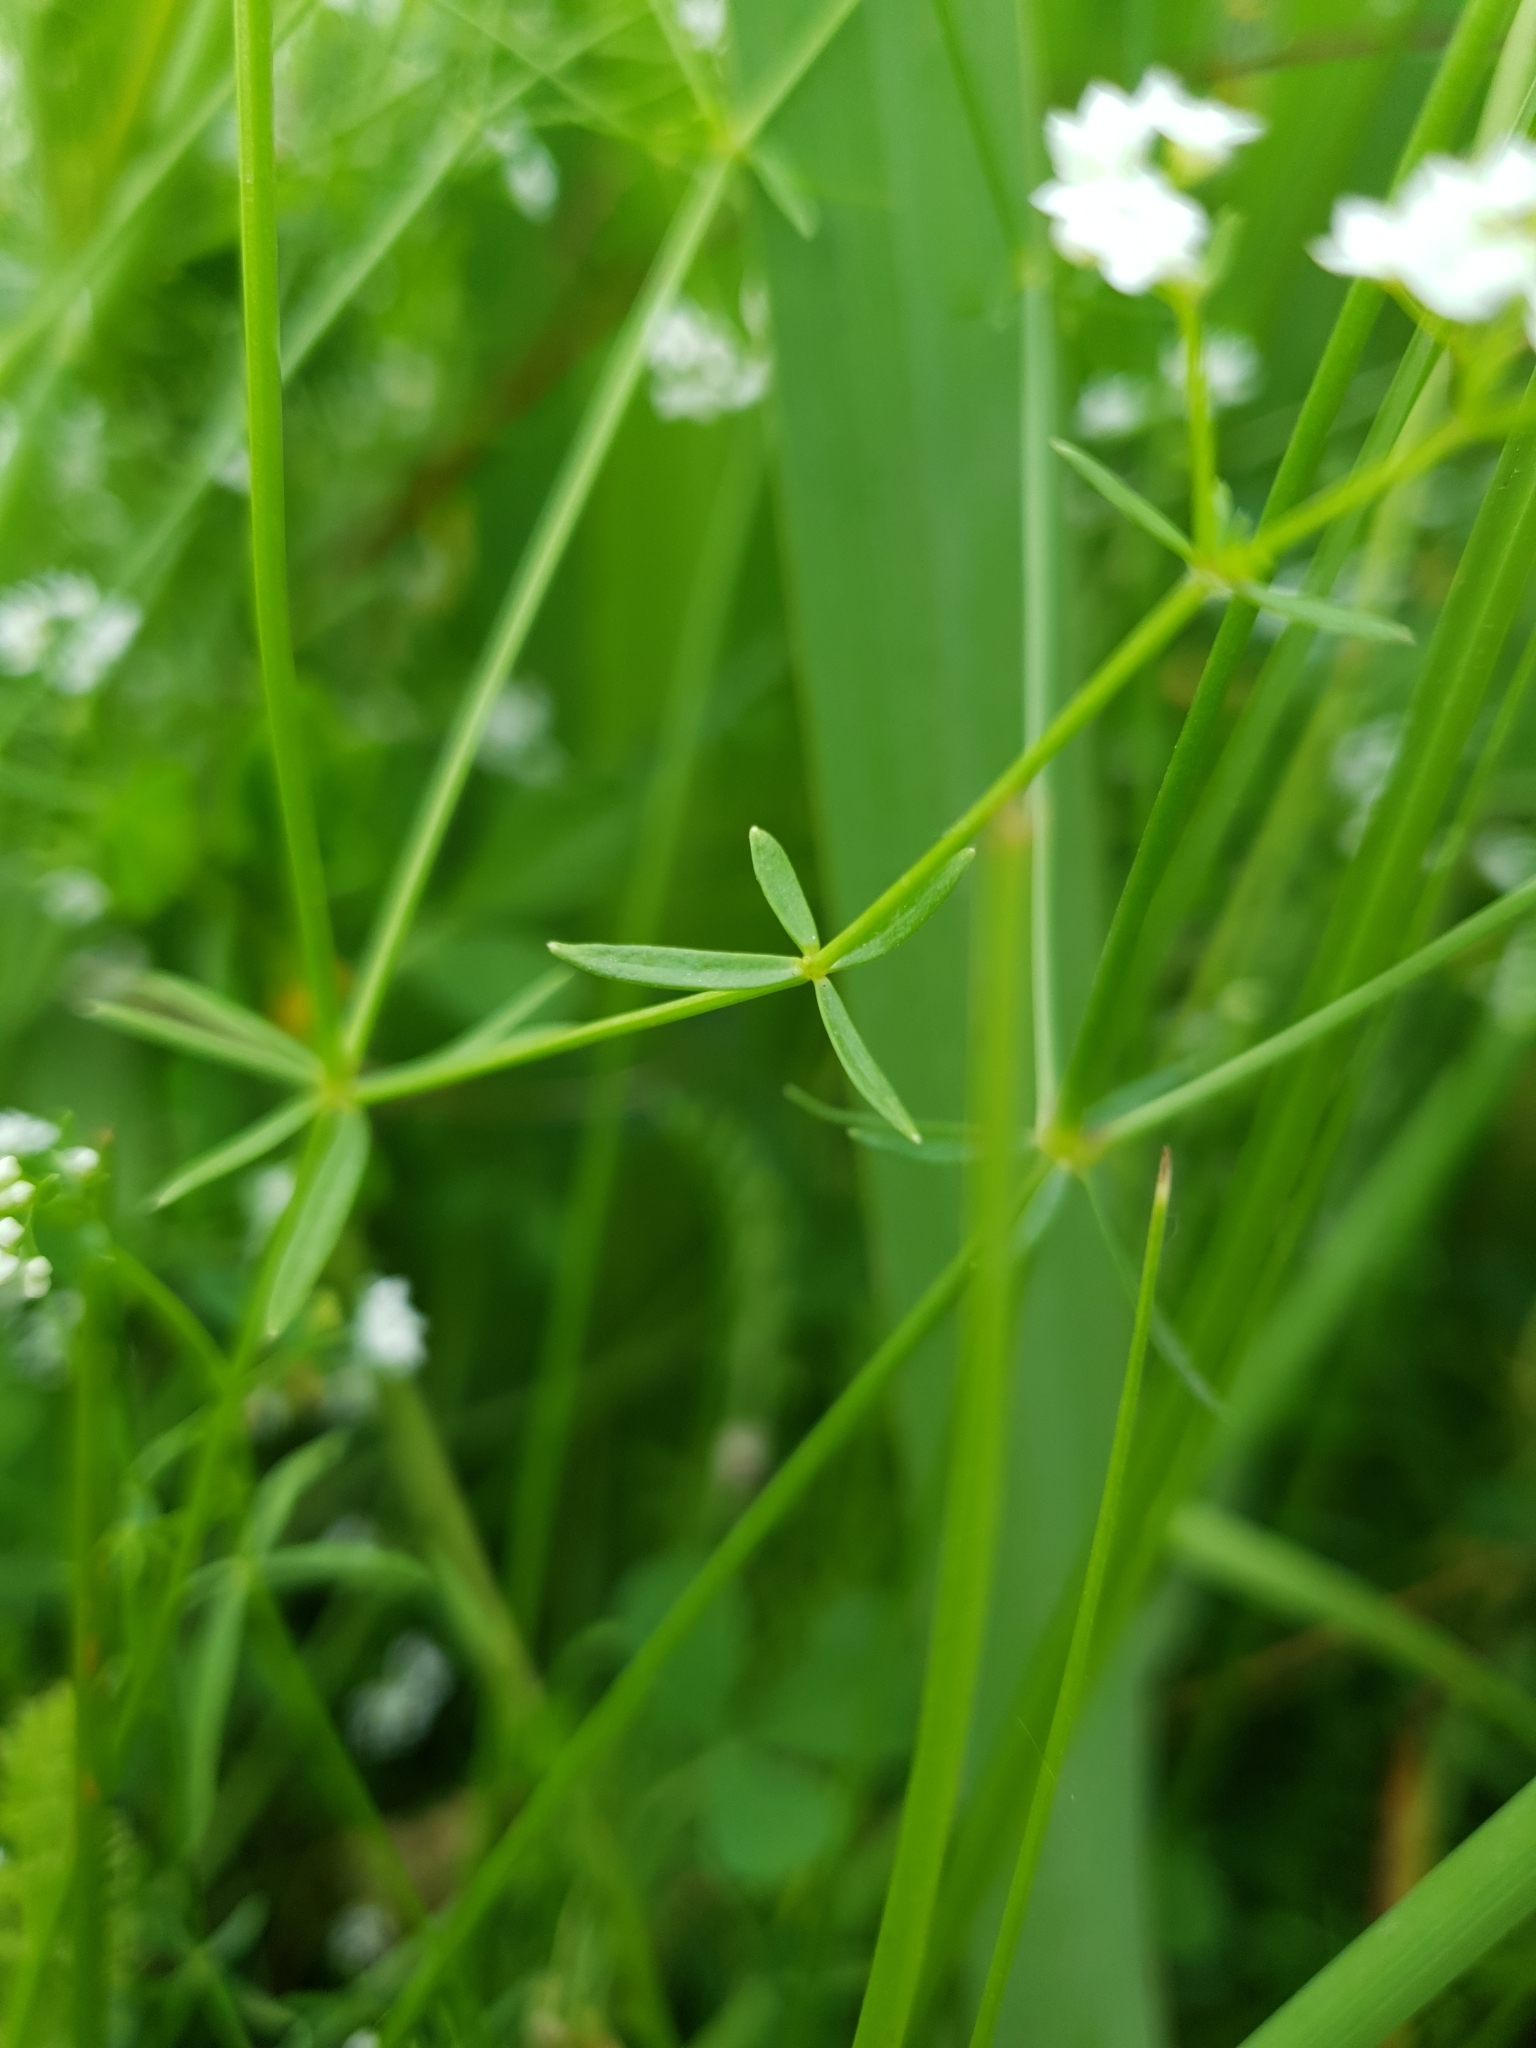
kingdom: Plantae
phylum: Tracheophyta
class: Magnoliopsida
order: Gentianales
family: Rubiaceae
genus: Galium
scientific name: Galium palustre
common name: Common marsh-bedstraw
